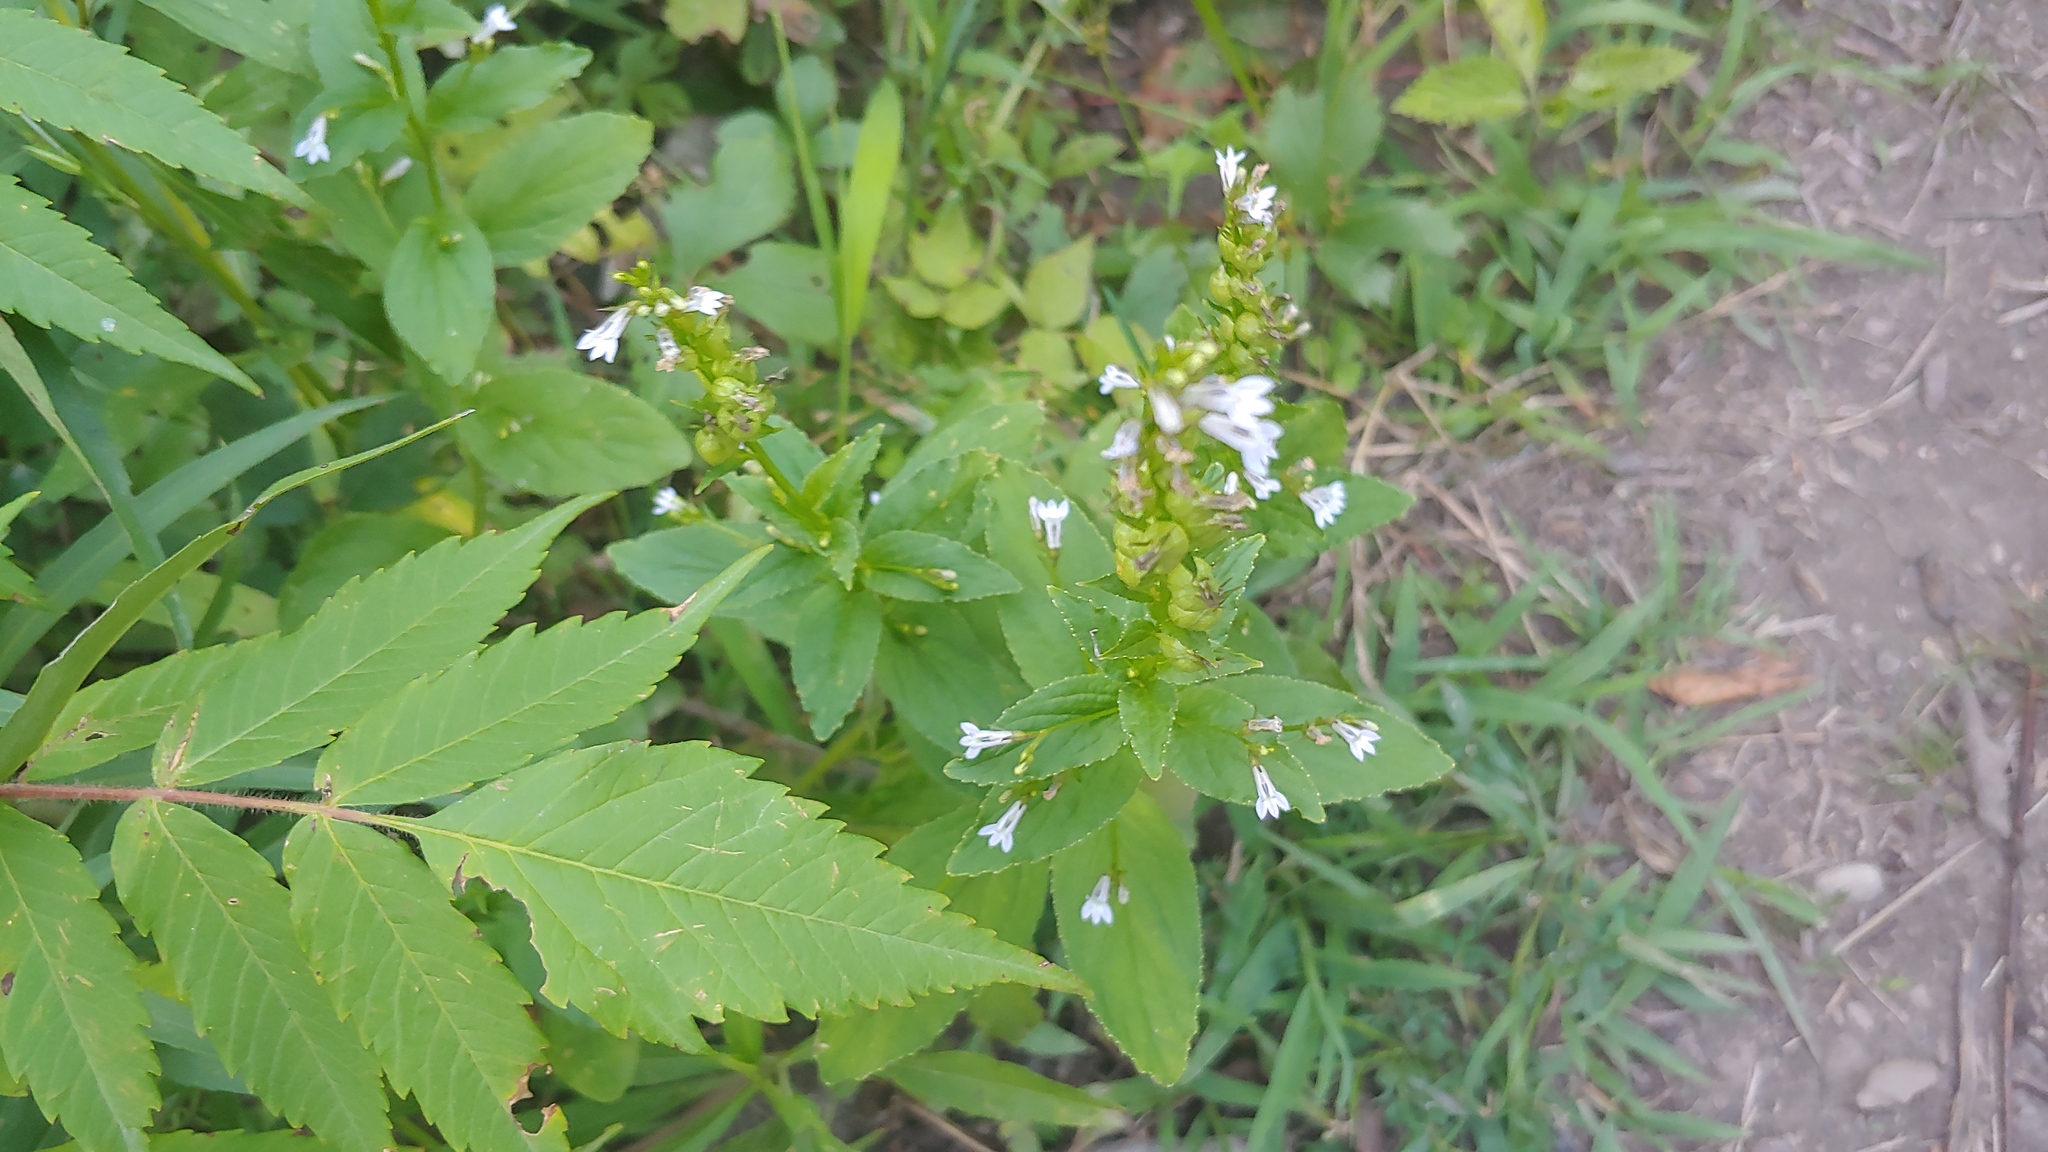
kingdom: Plantae
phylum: Tracheophyta
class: Magnoliopsida
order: Asterales
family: Campanulaceae
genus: Lobelia
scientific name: Lobelia inflata
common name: Indian tobacco
